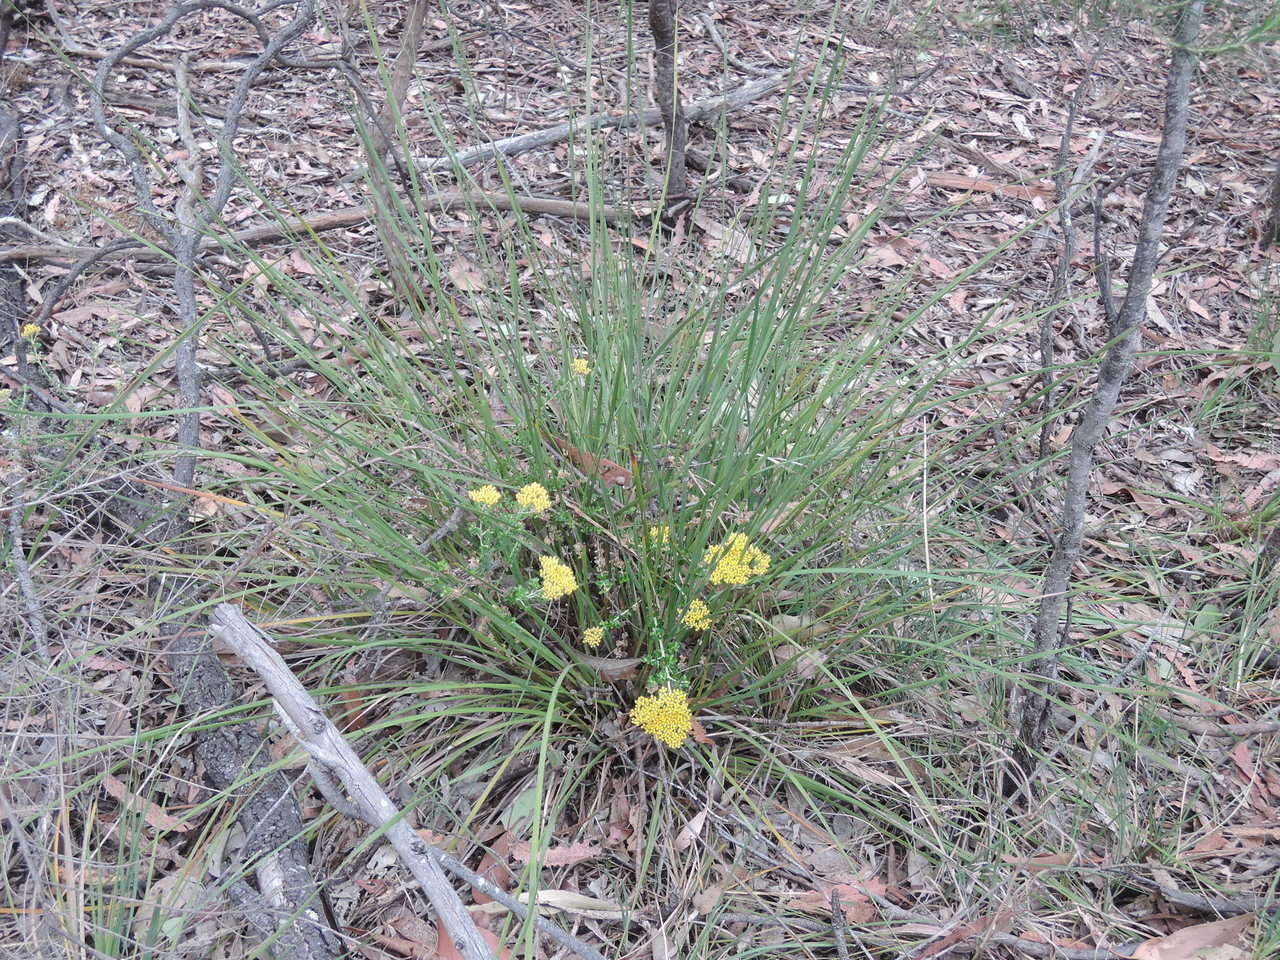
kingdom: Plantae
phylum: Tracheophyta
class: Magnoliopsida
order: Asterales
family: Asteraceae
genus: Ozothamnus
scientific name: Ozothamnus obcordatus
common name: Grey everlasting
